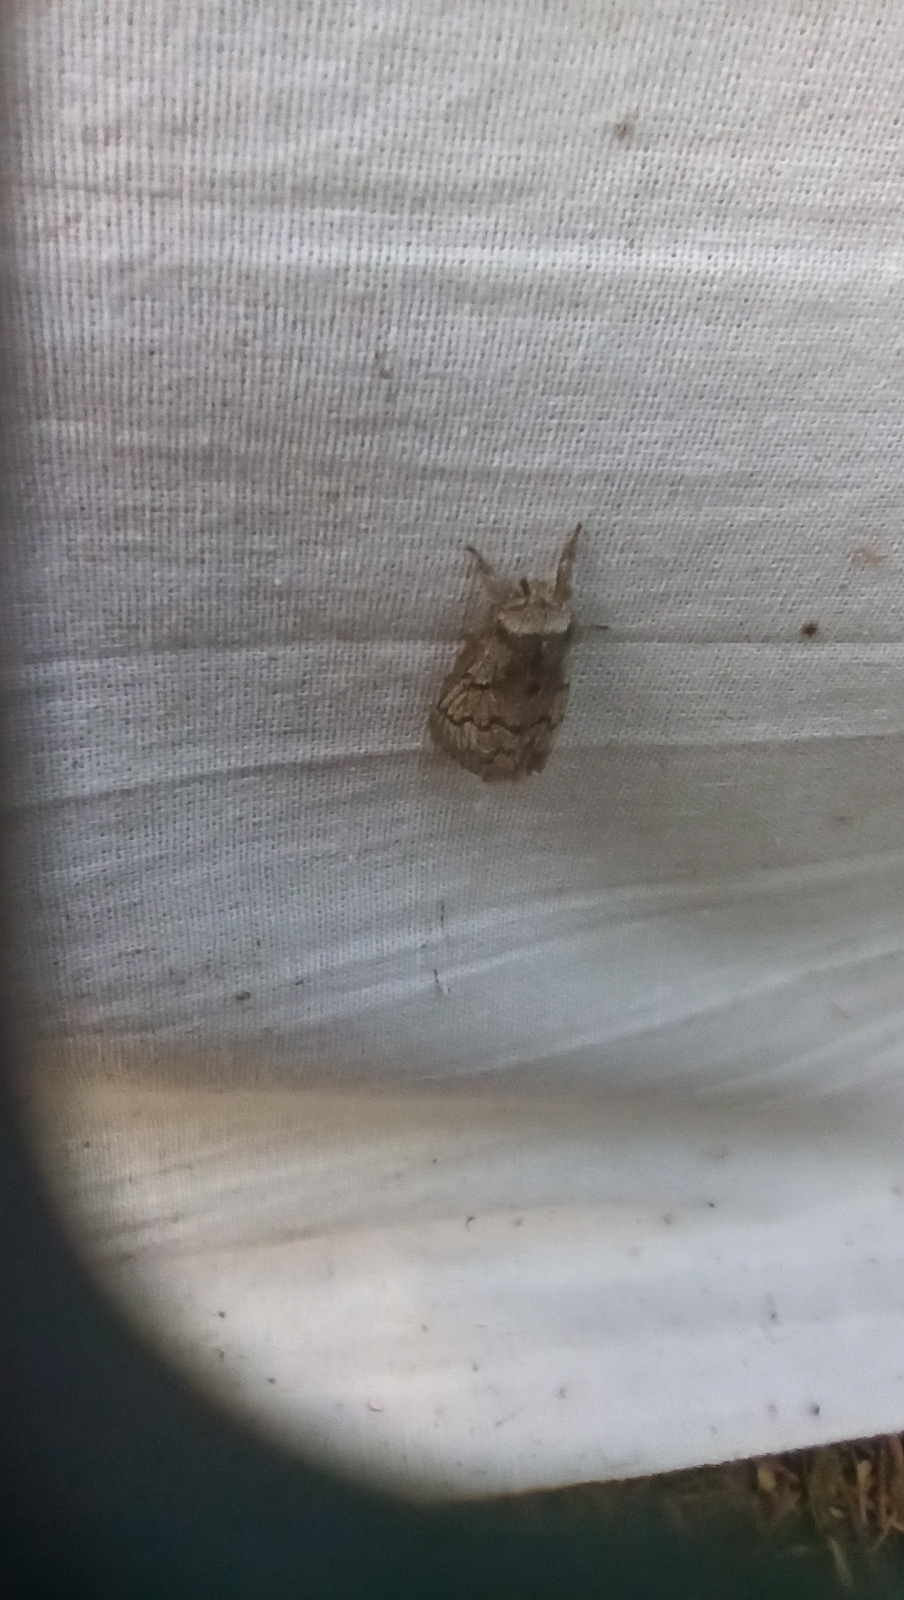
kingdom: Animalia
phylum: Arthropoda
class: Insecta
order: Lepidoptera
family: Lasiocampidae
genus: Trichiura
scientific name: Trichiura crataegi
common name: Pale eggar
